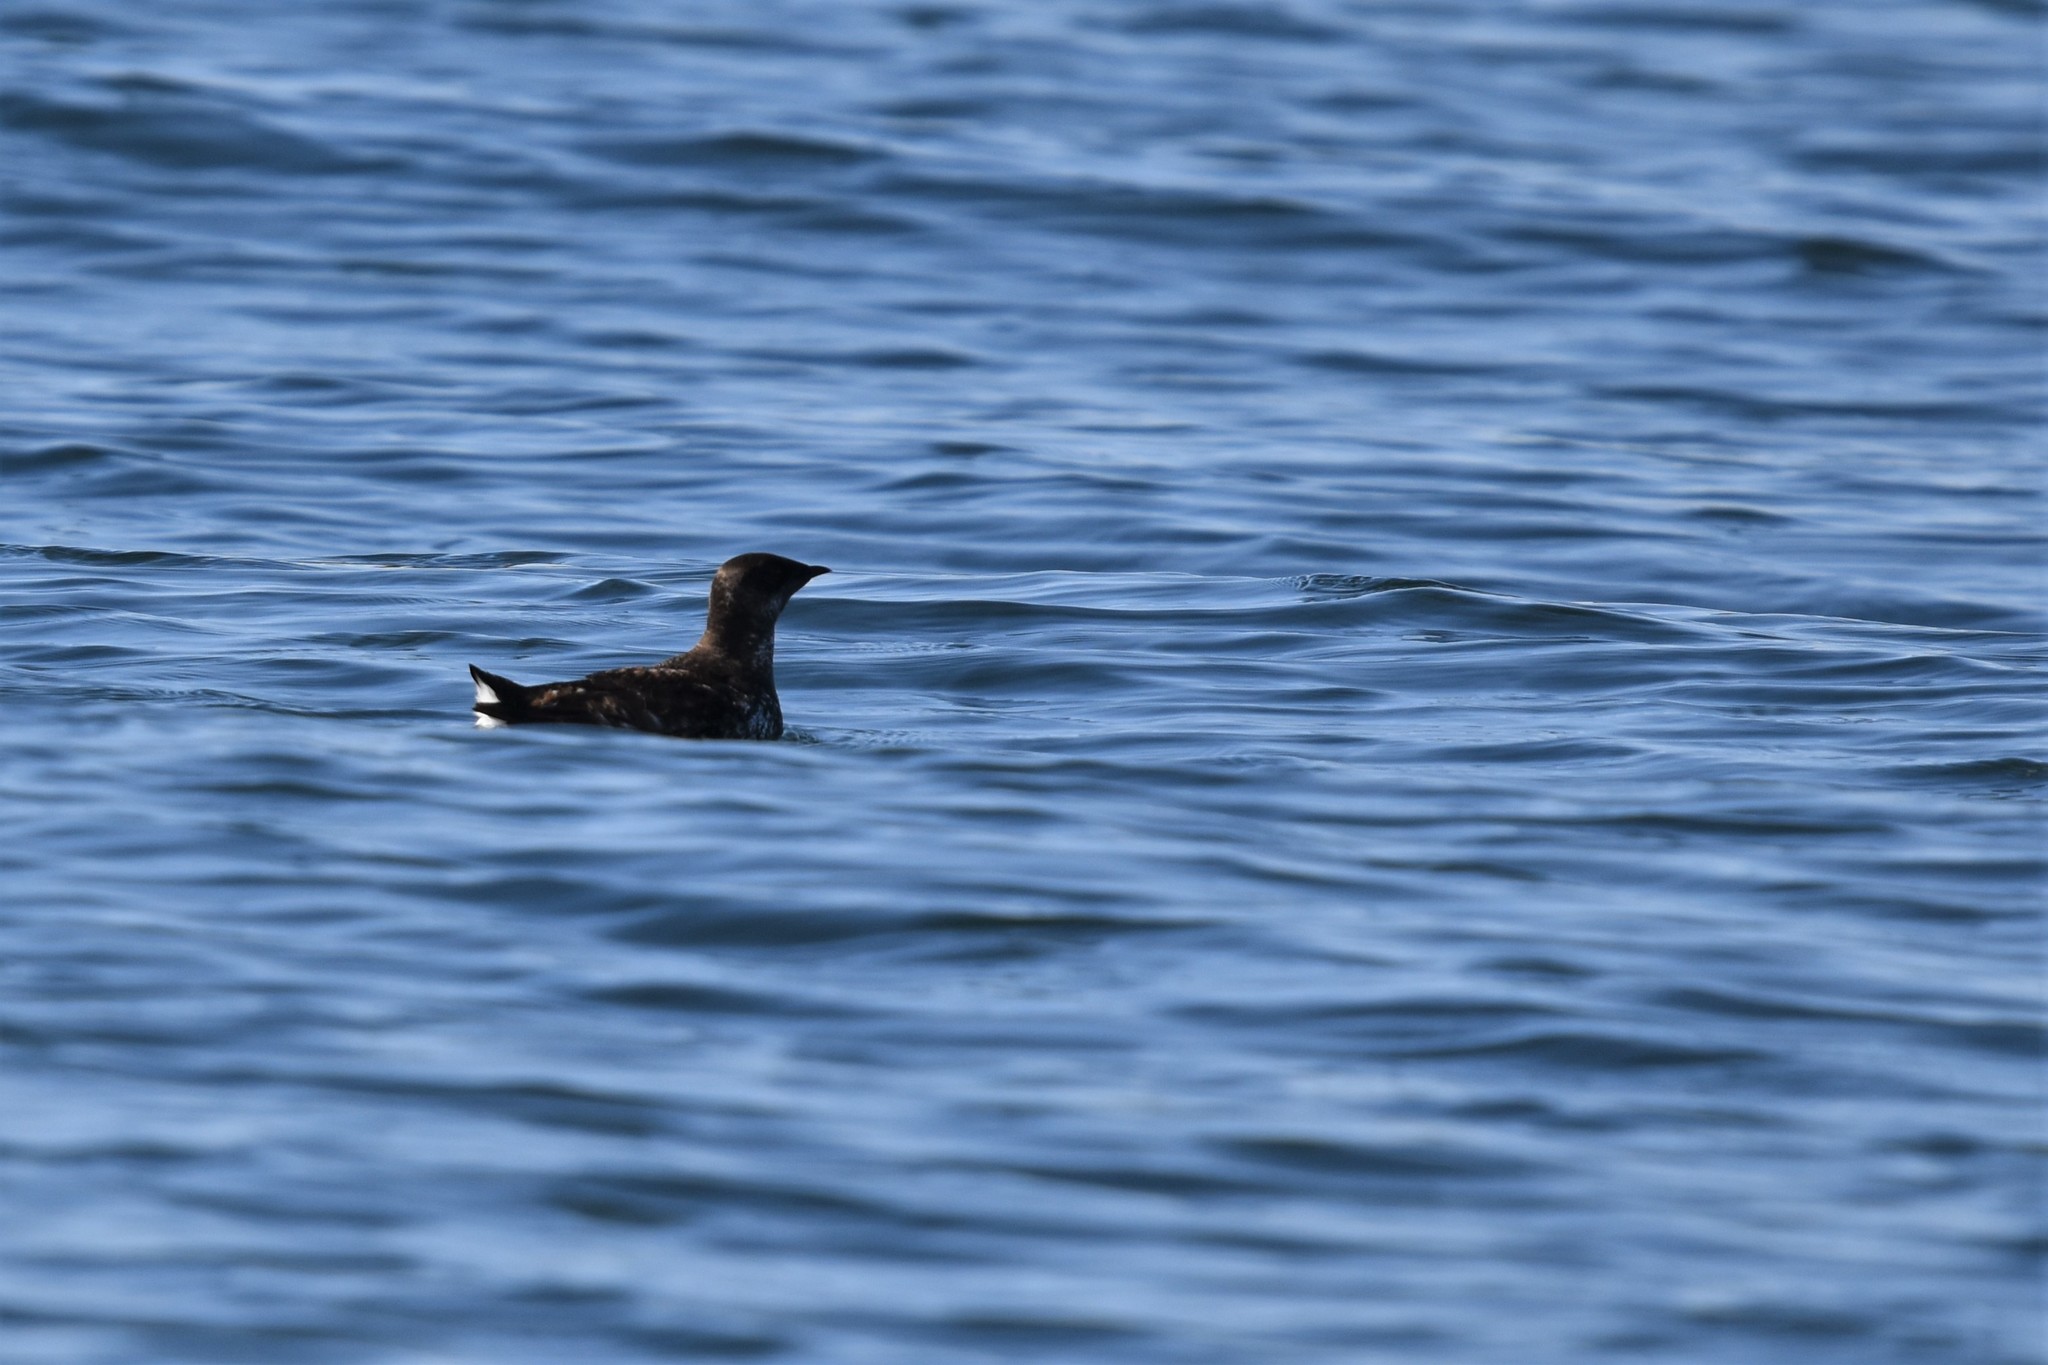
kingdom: Animalia
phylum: Chordata
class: Aves
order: Charadriiformes
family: Alcidae
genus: Brachyramphus
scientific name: Brachyramphus marmoratus
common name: Marbled murrelet
